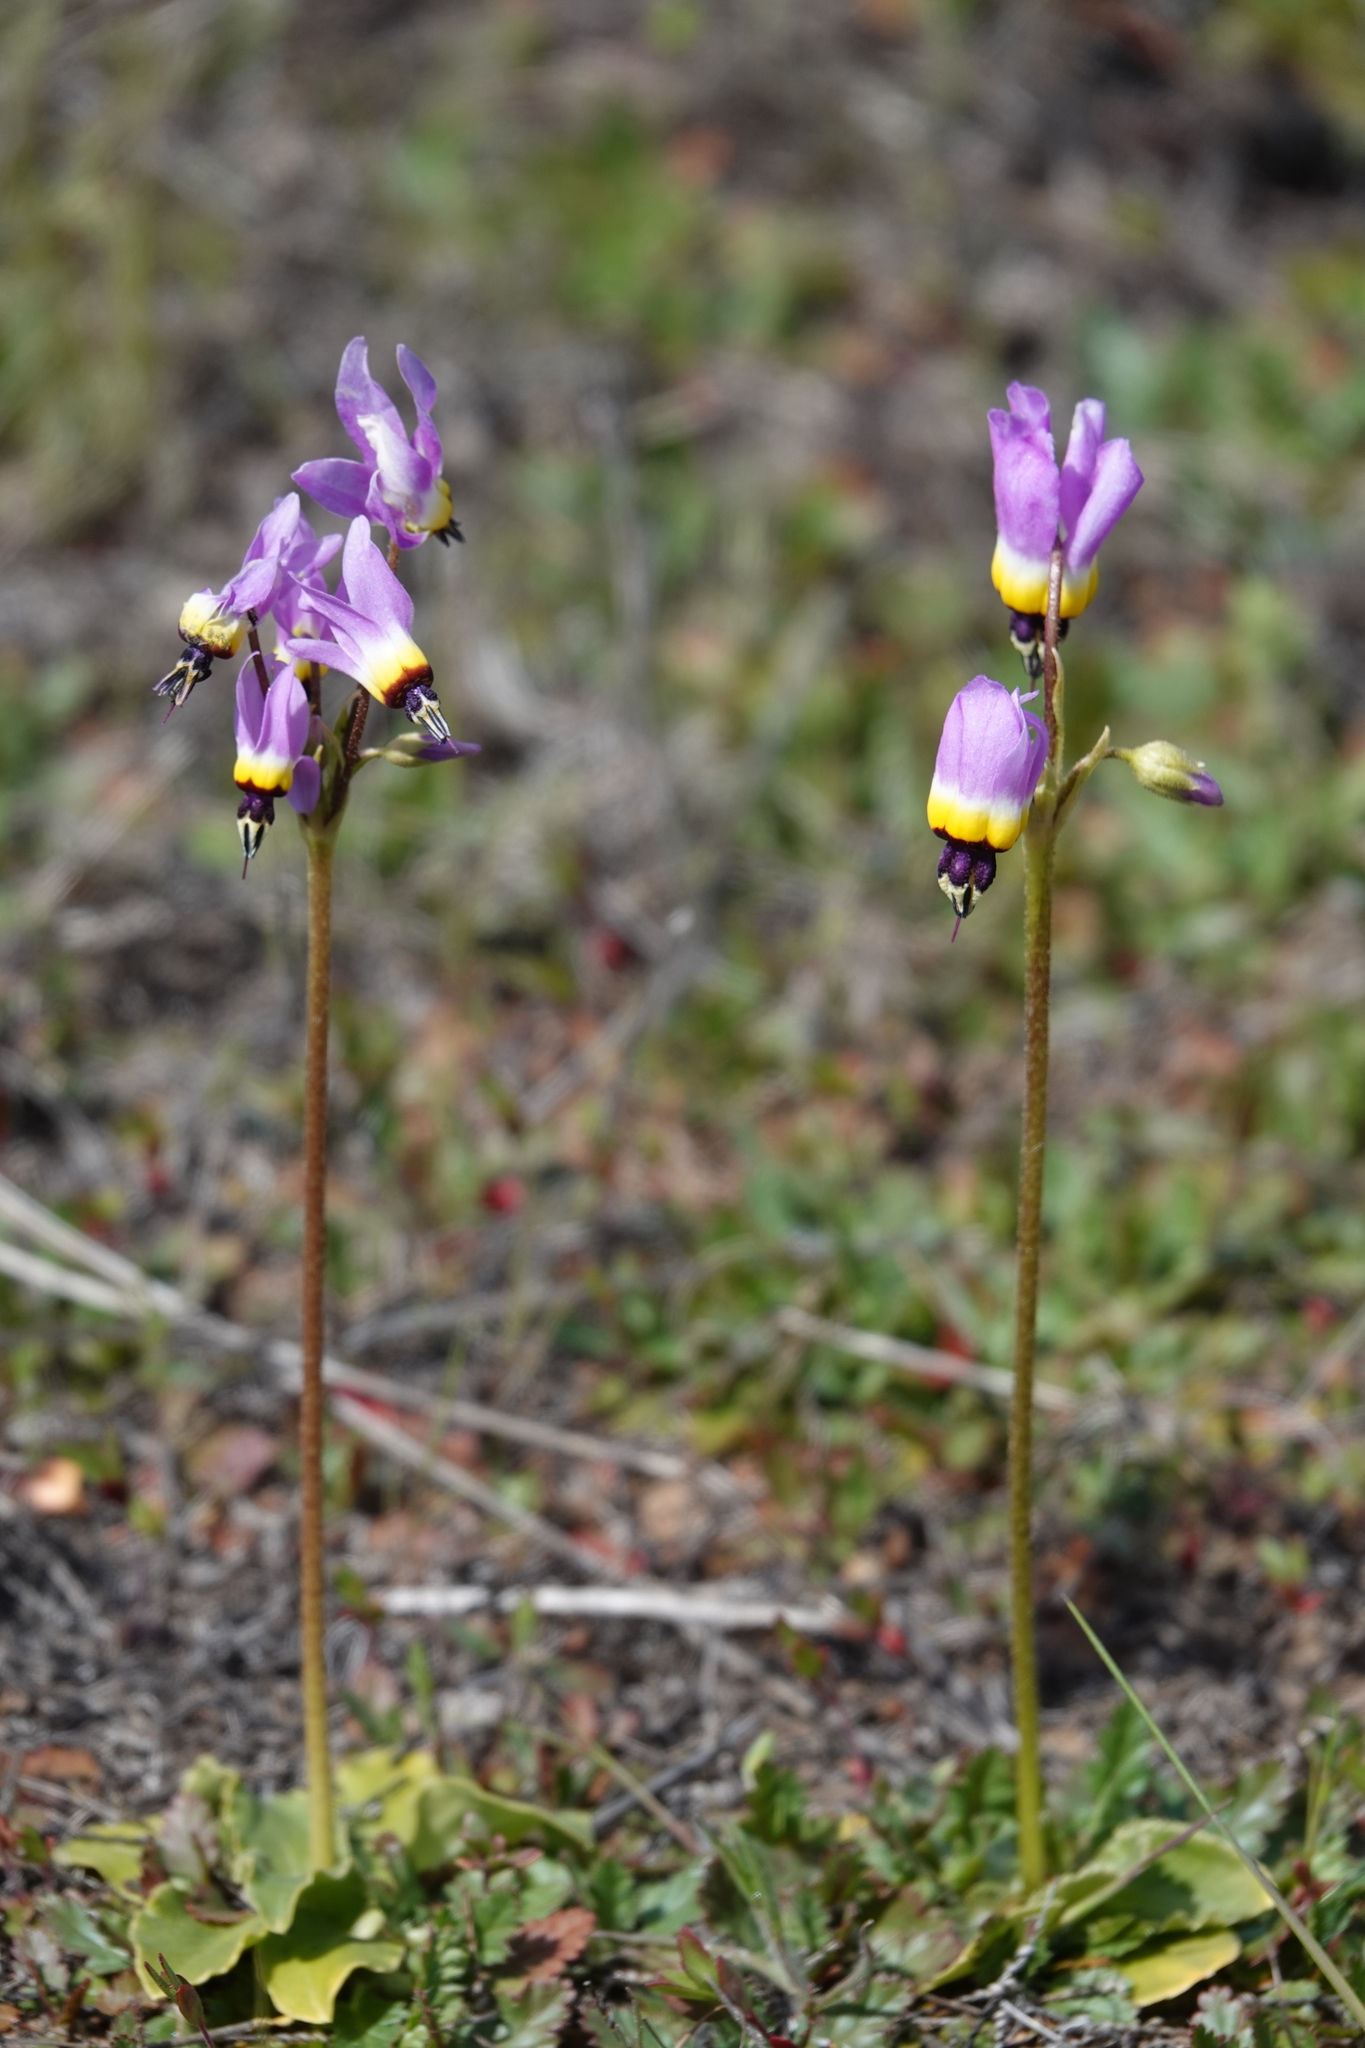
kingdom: Plantae
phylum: Tracheophyta
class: Magnoliopsida
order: Ericales
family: Primulaceae
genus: Dodecatheon
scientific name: Dodecatheon clevelandii
